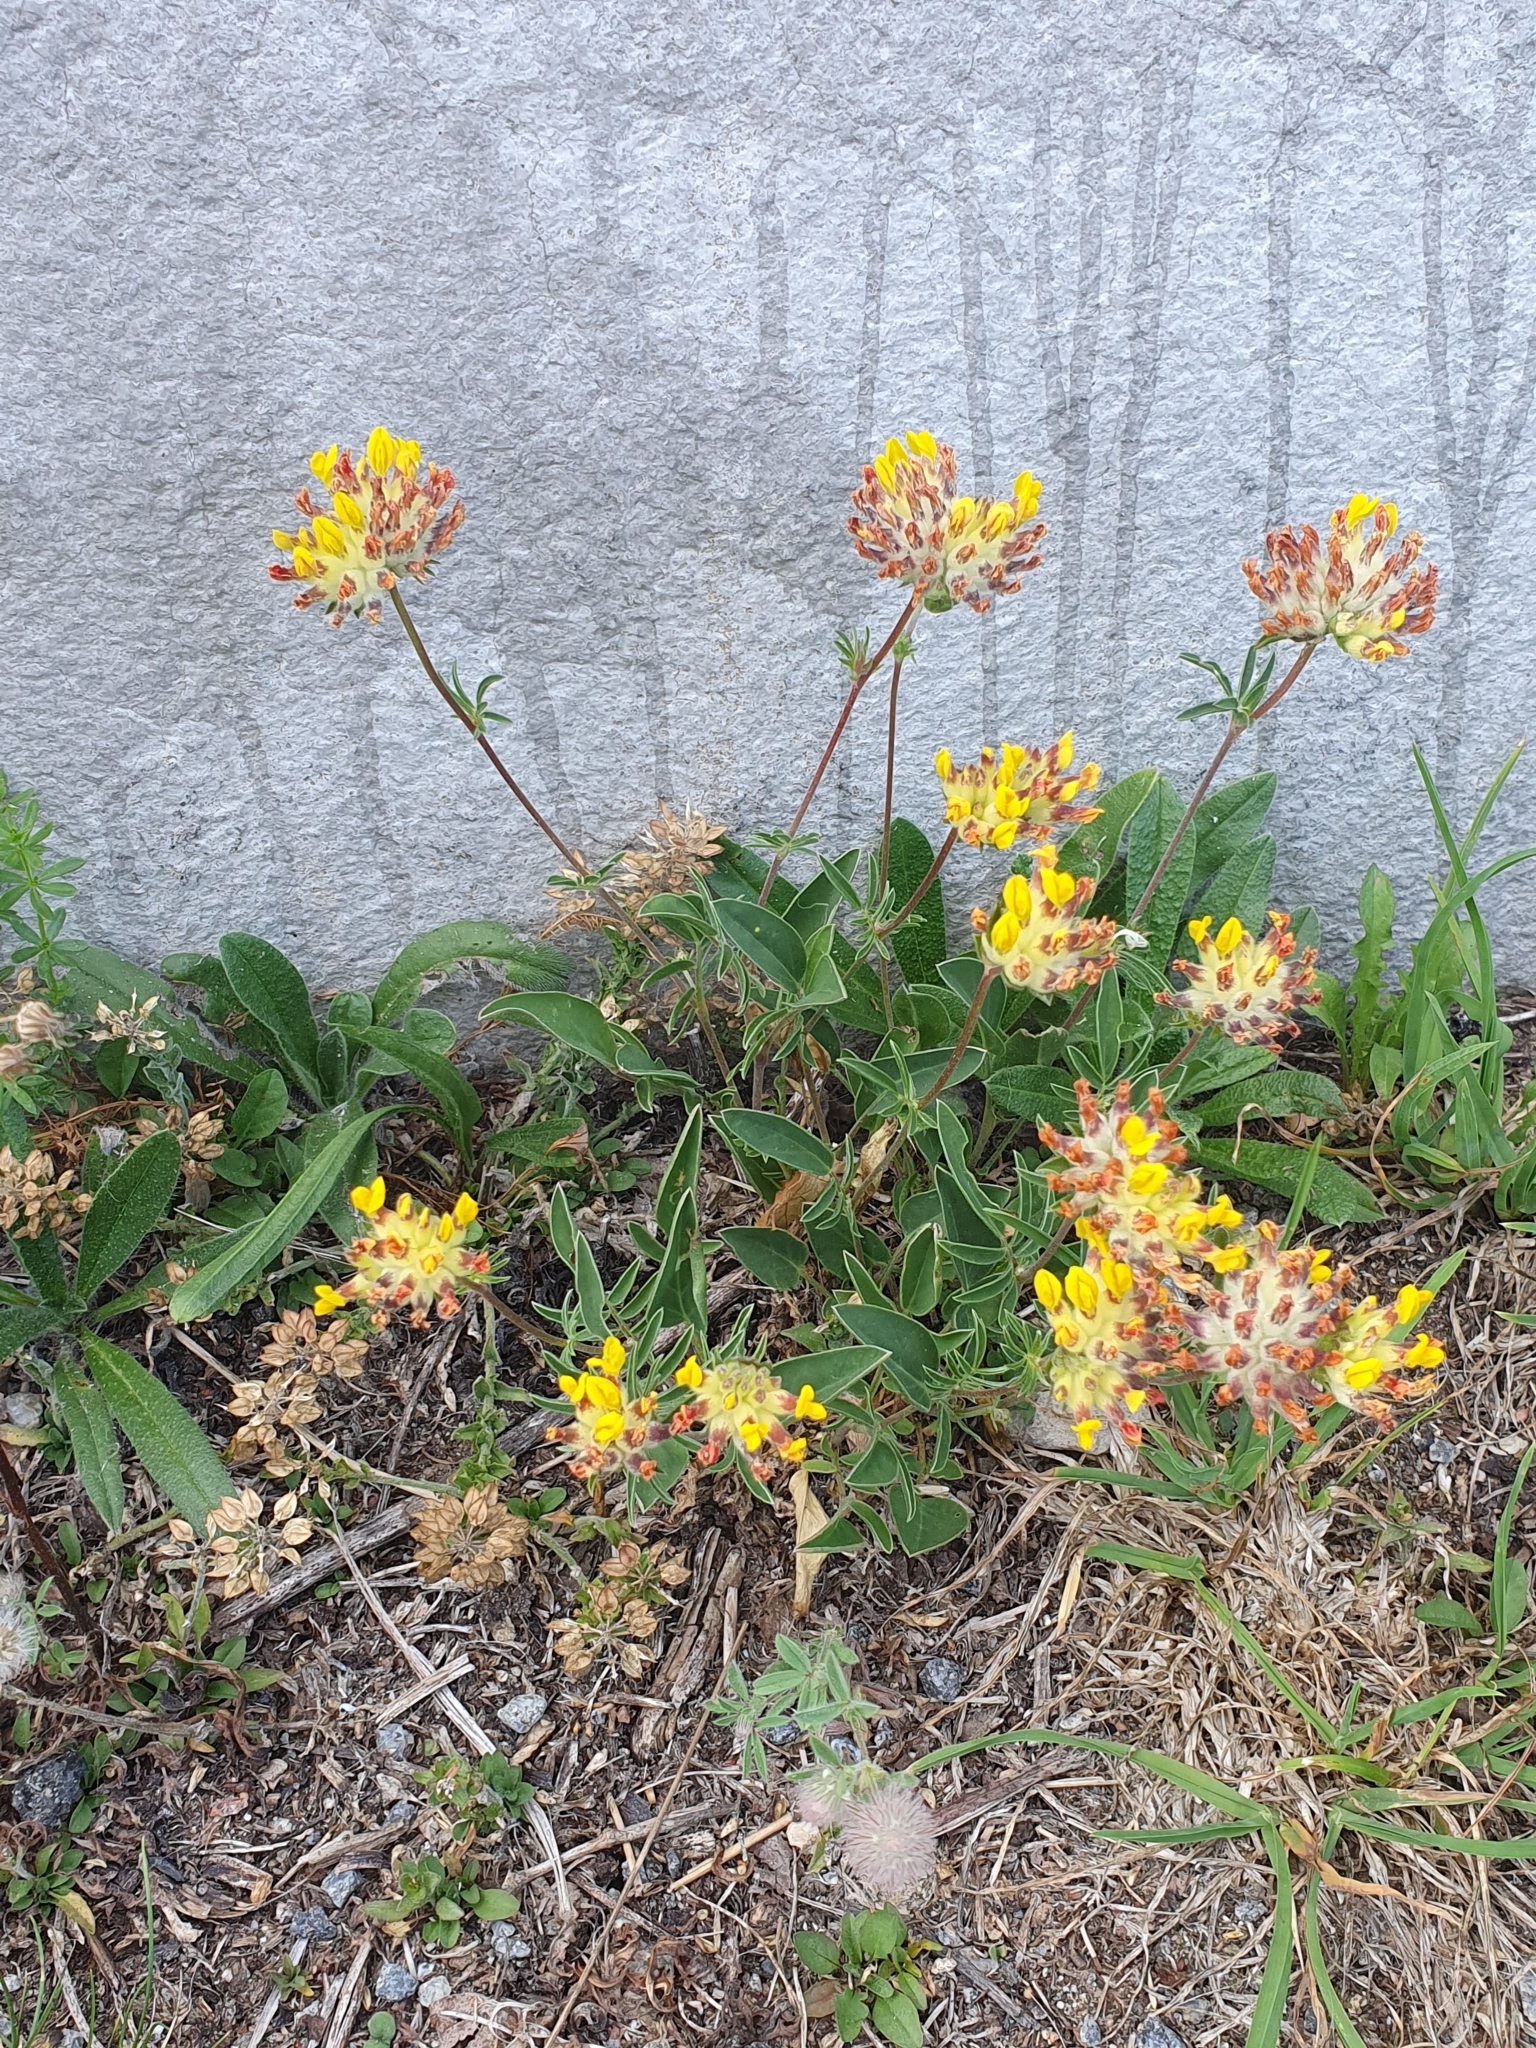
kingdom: Plantae
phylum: Tracheophyta
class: Magnoliopsida
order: Fabales
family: Fabaceae
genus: Anthyllis
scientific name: Anthyllis vulneraria
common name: Kidney vetch
